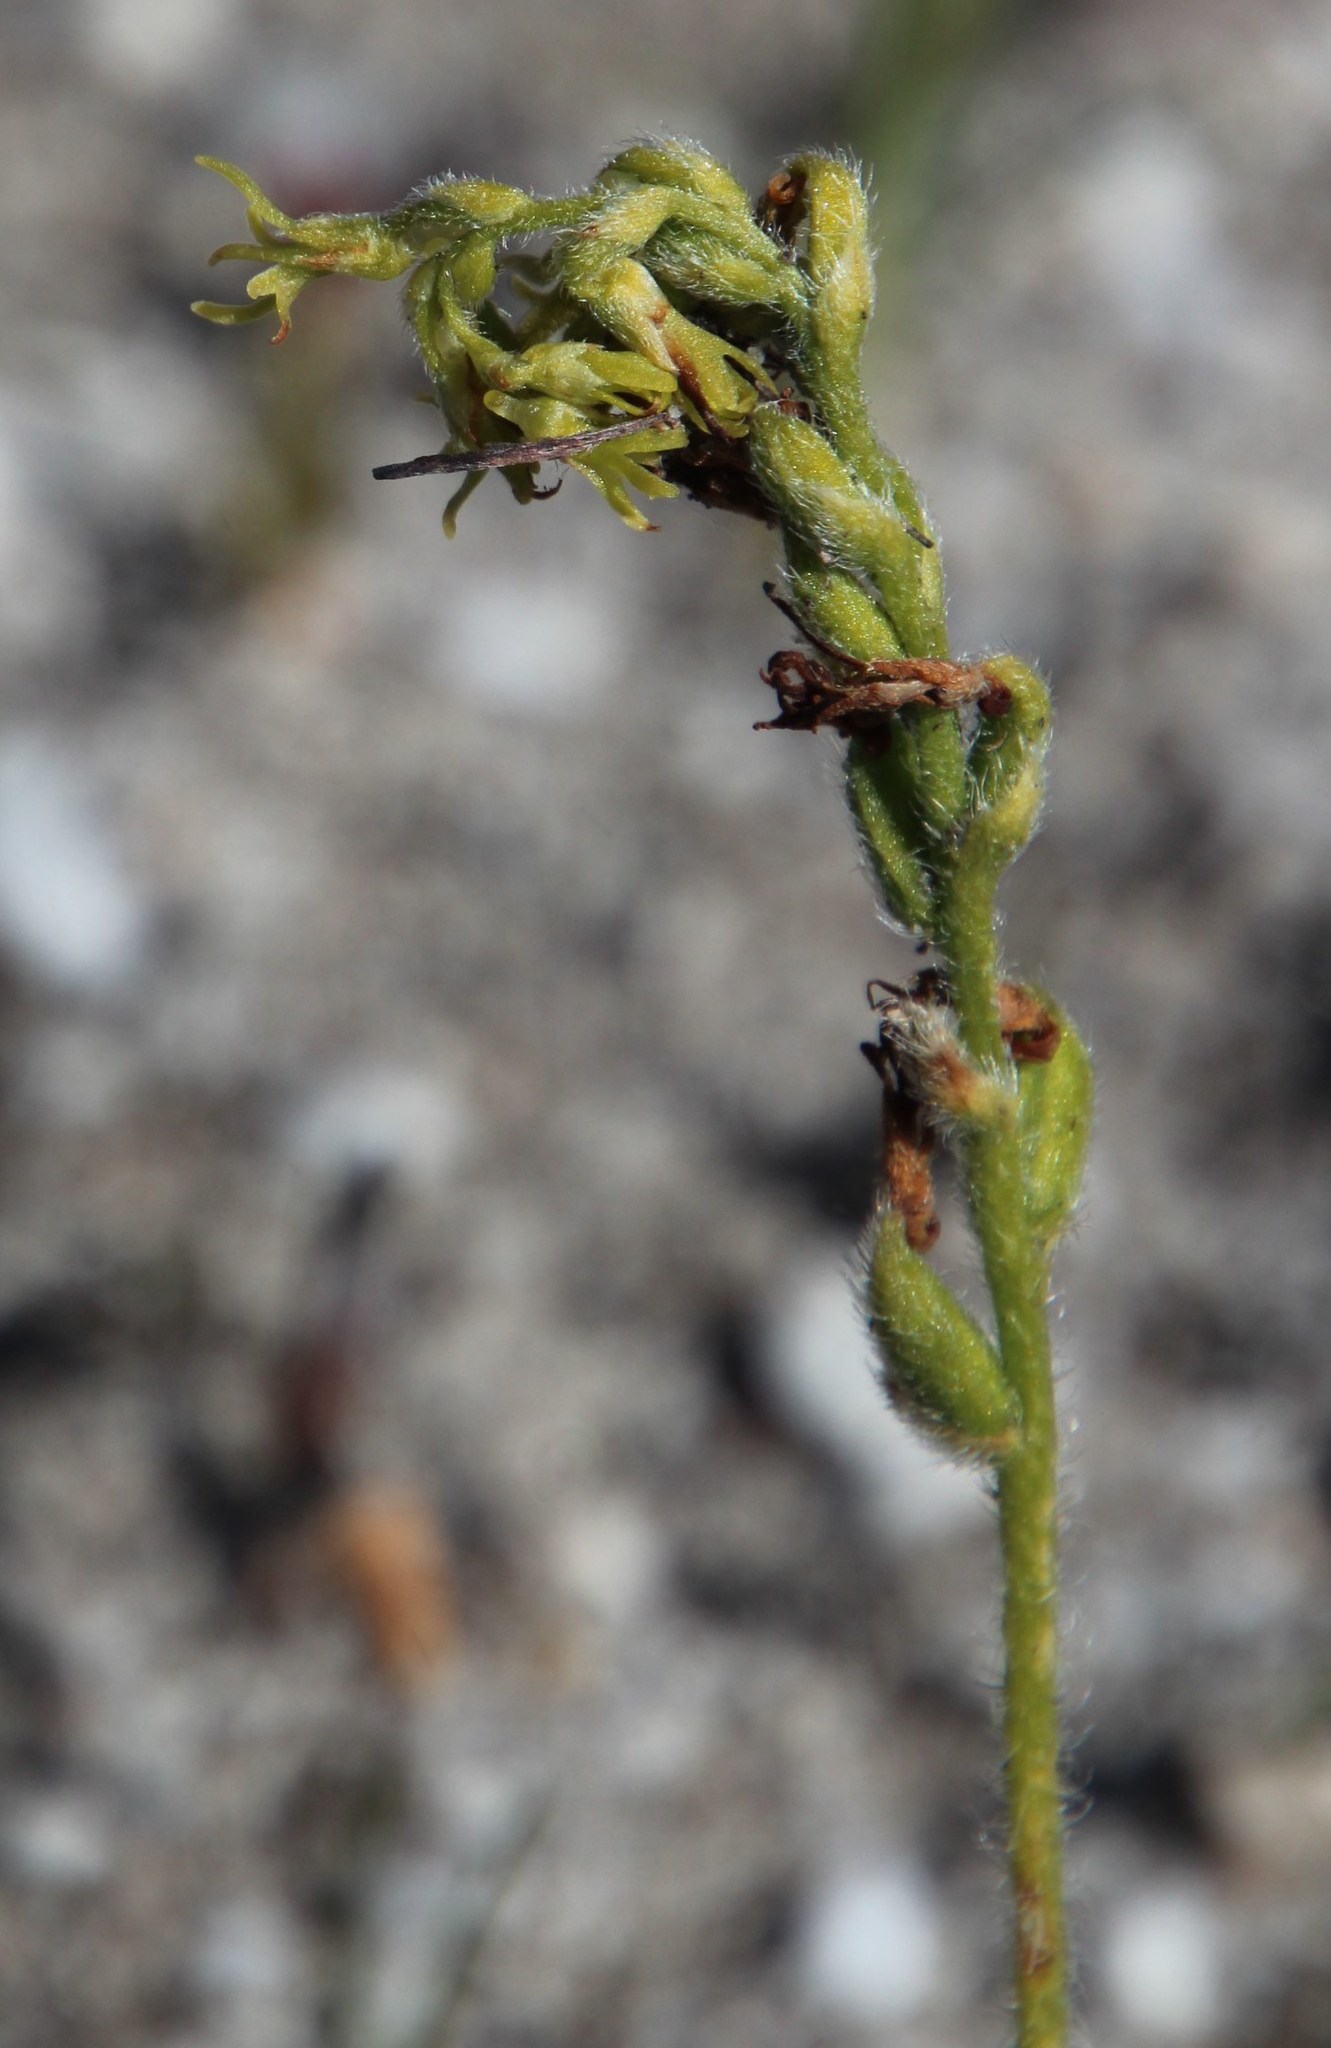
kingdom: Plantae
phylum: Tracheophyta
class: Liliopsida
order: Asparagales
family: Orchidaceae
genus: Holothrix
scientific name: Holothrix villosa
